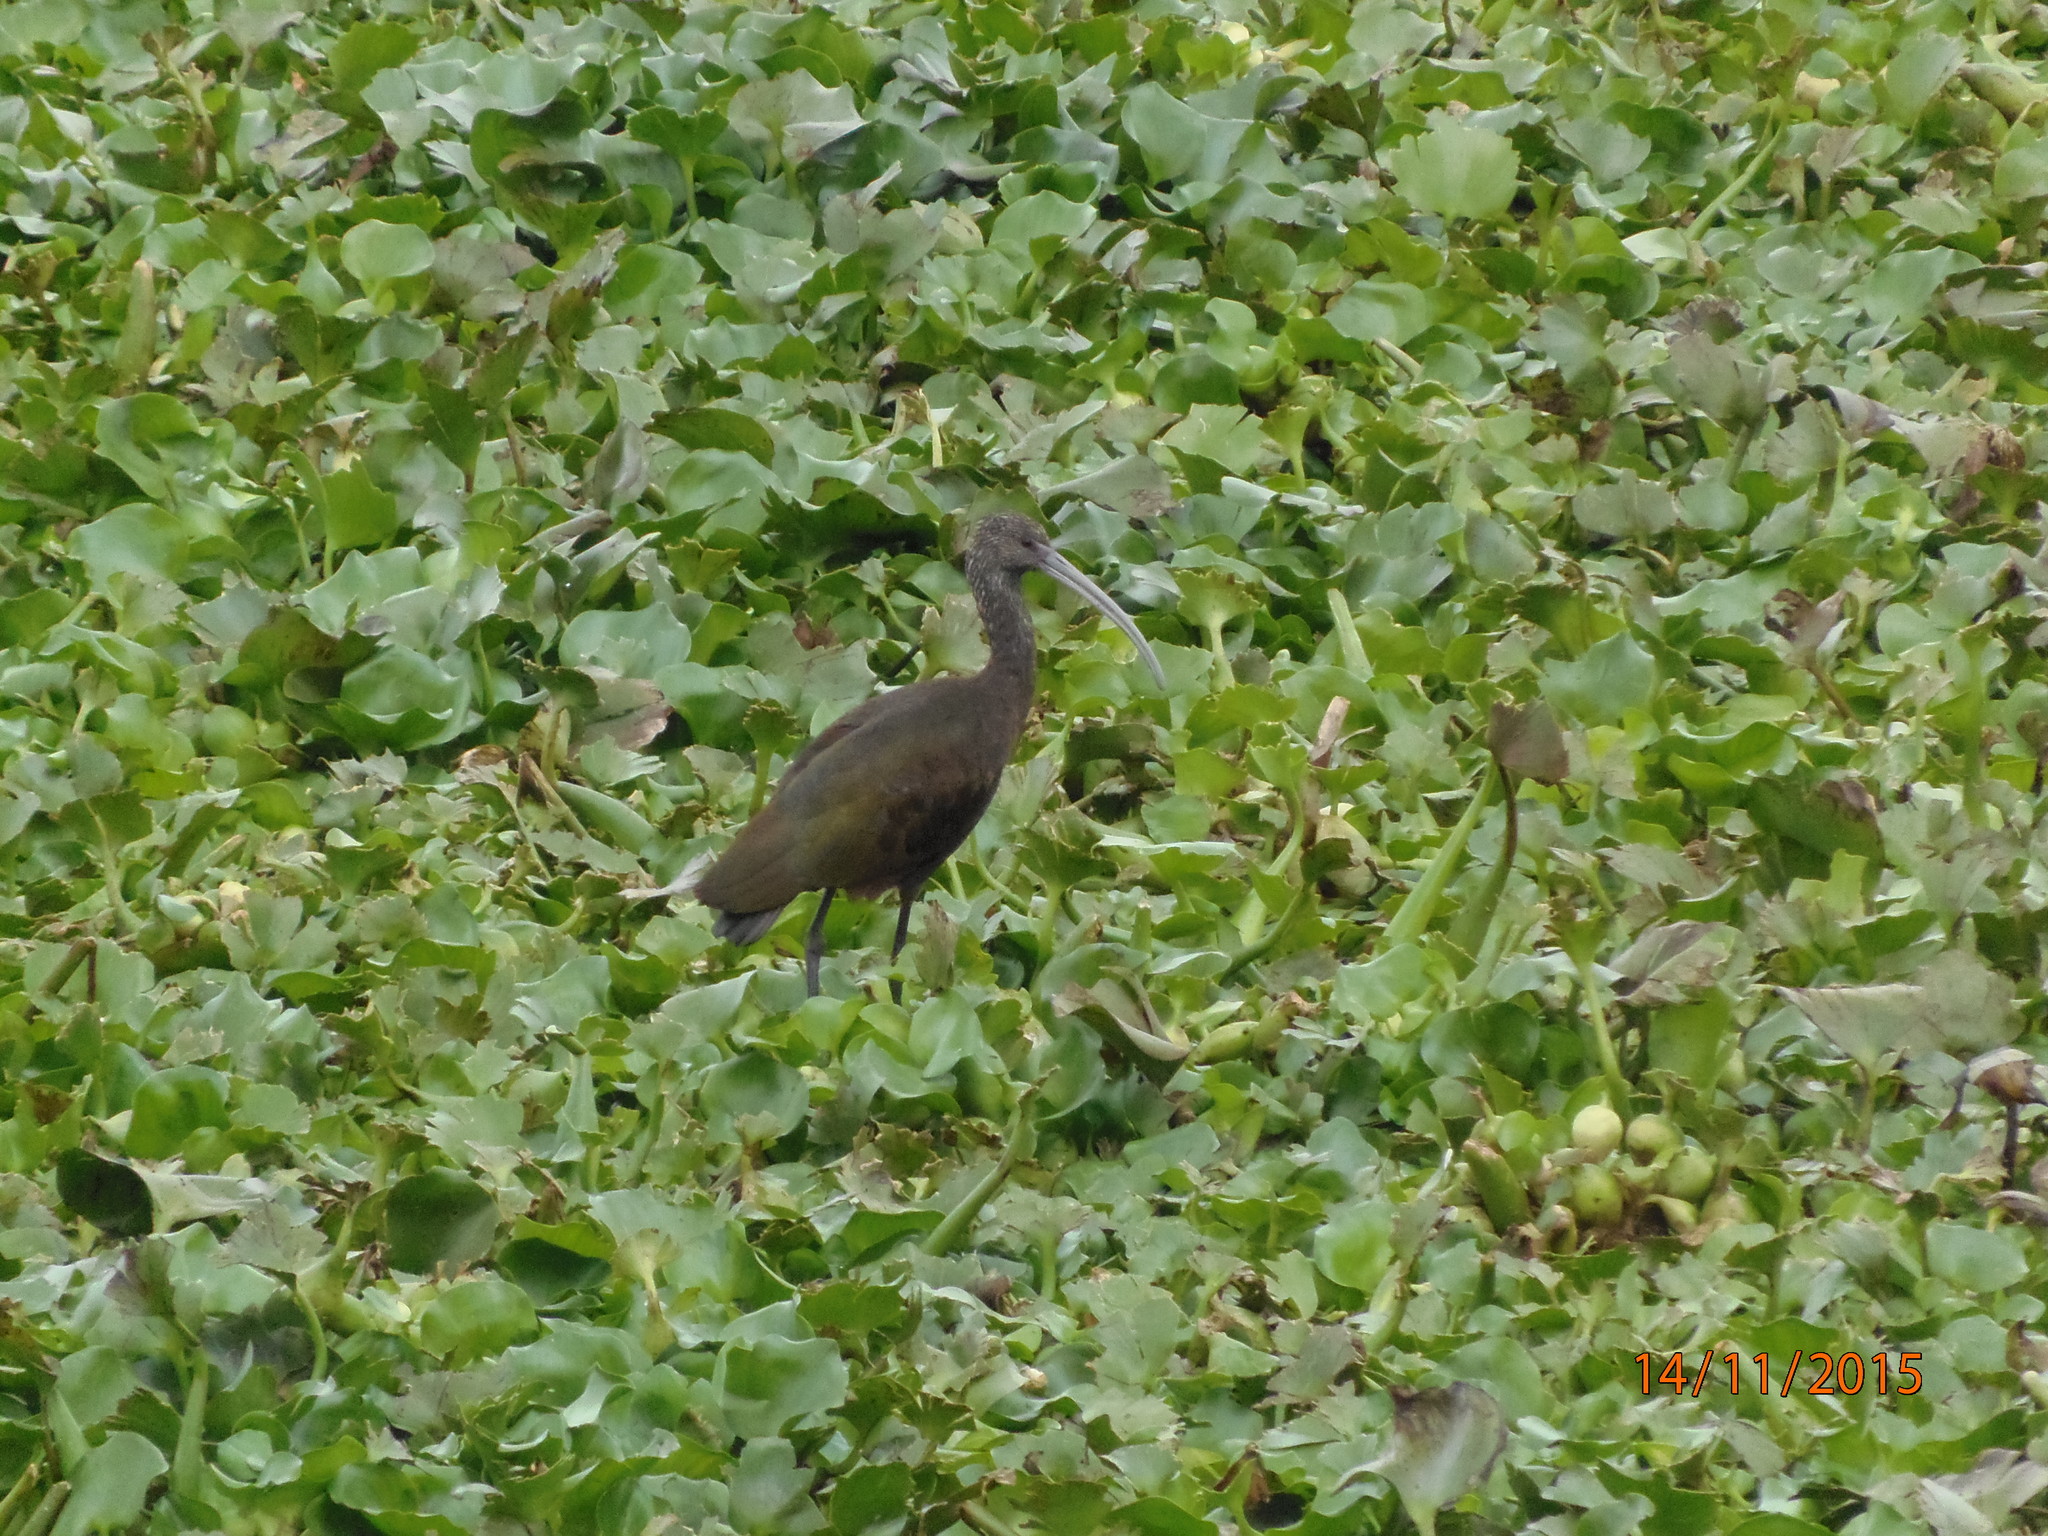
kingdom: Animalia
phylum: Chordata
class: Aves
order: Pelecaniformes
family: Threskiornithidae
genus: Plegadis
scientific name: Plegadis chihi
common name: White-faced ibis
